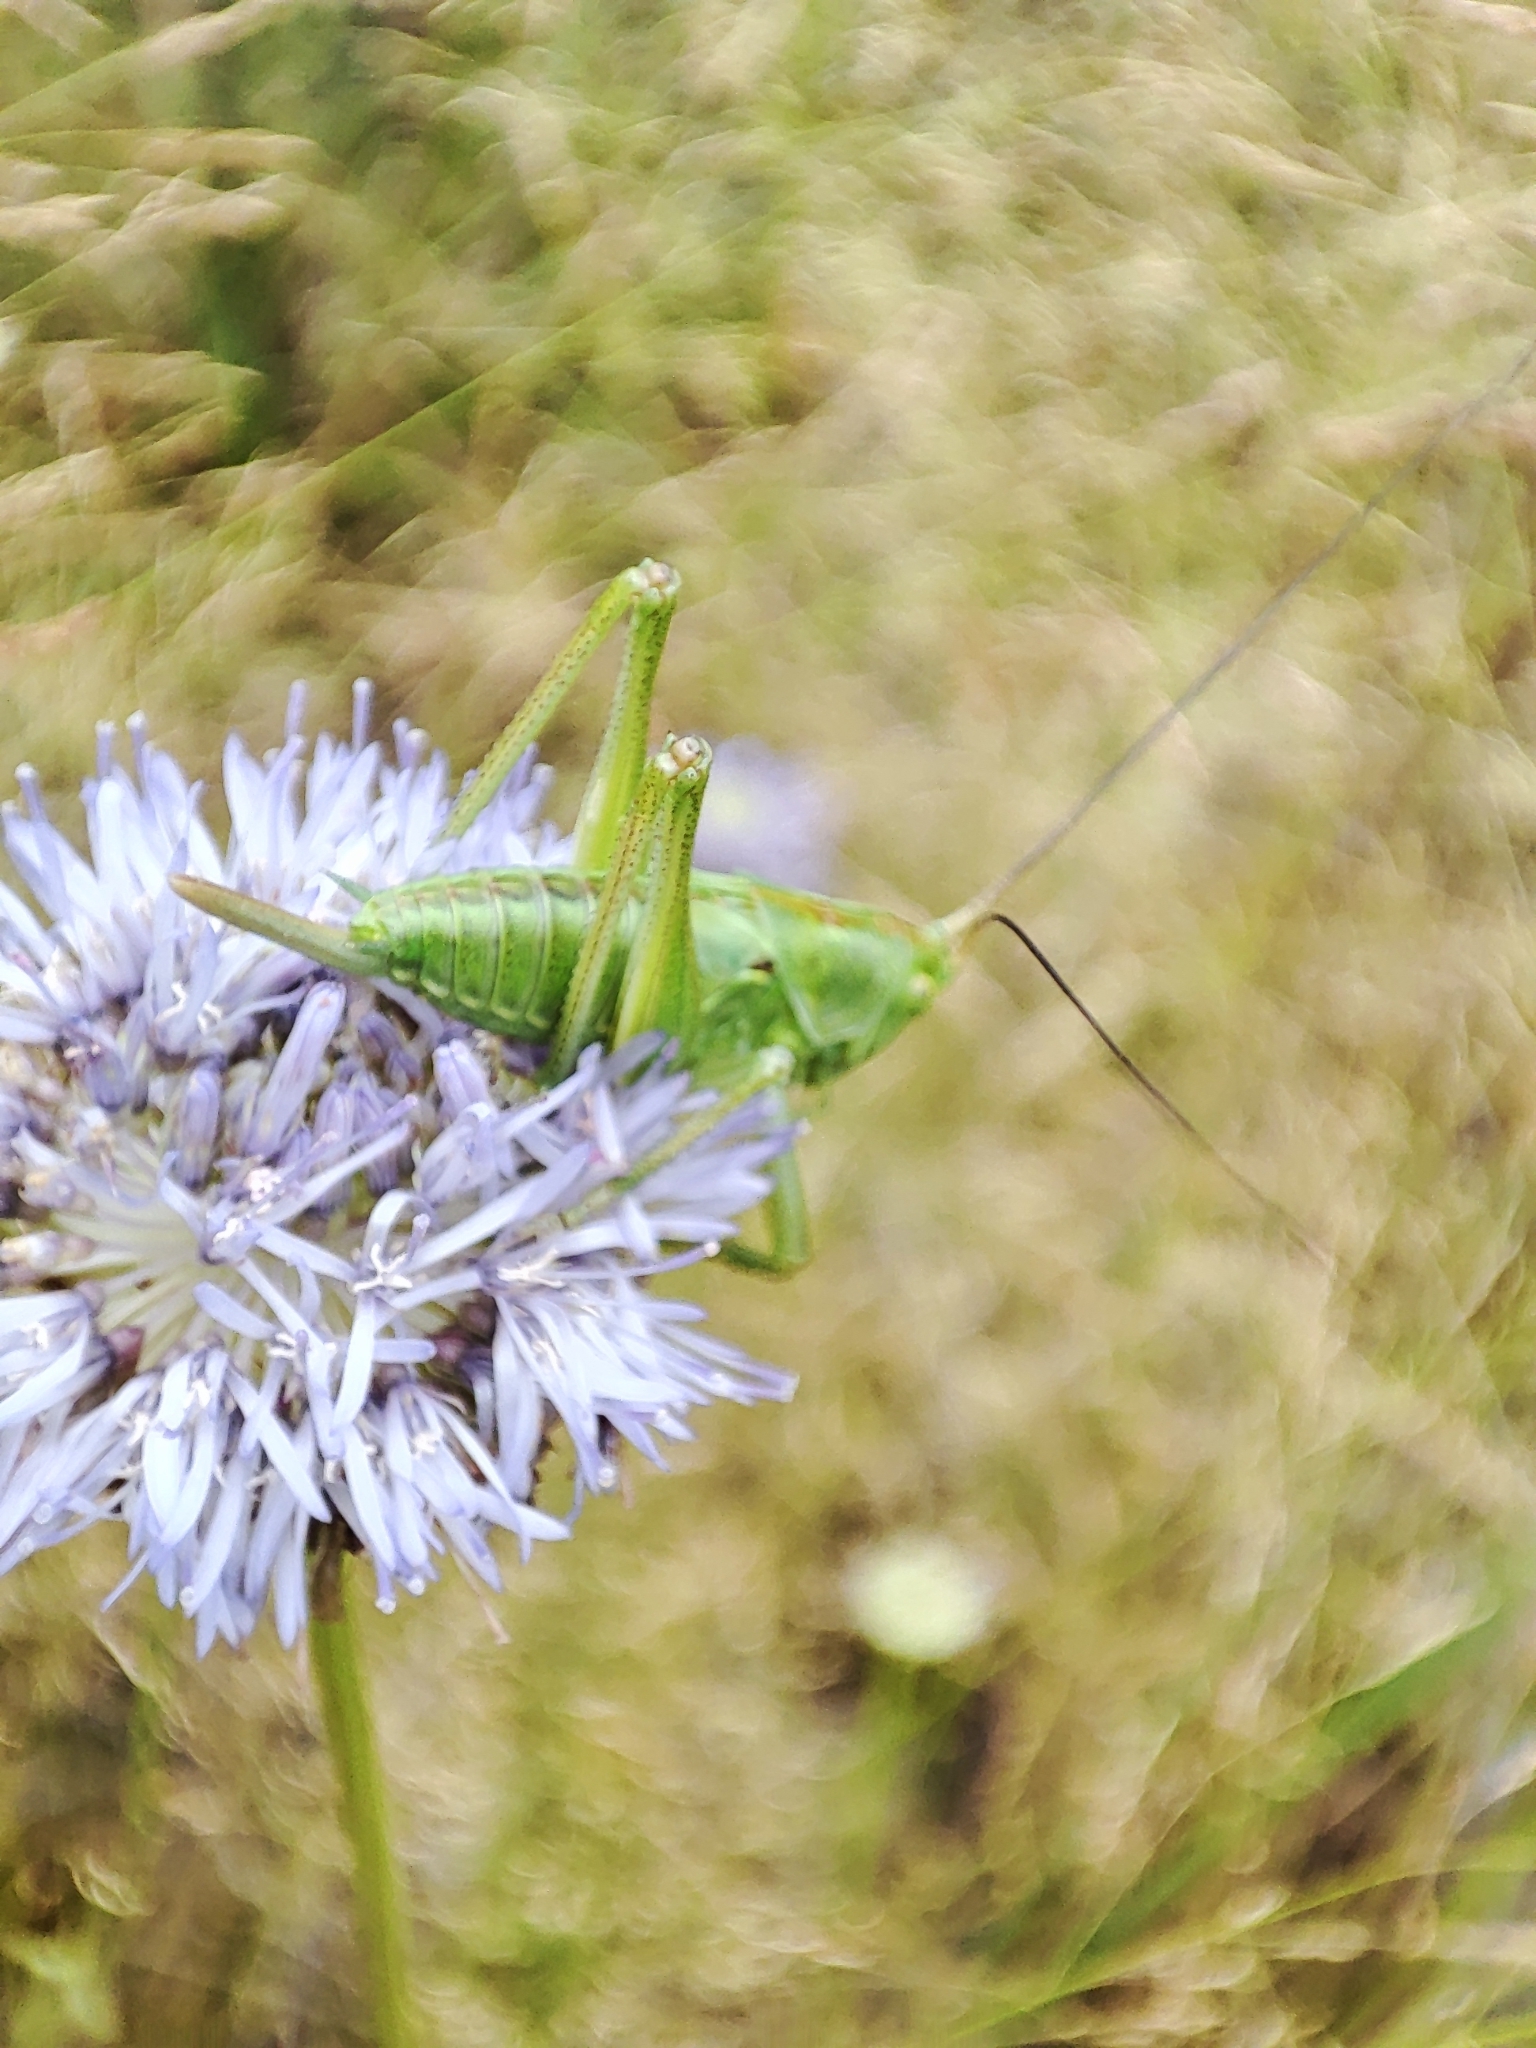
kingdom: Animalia
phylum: Arthropoda
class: Insecta
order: Orthoptera
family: Tettigoniidae
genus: Tettigonia
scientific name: Tettigonia viridissima
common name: Great green bush-cricket
